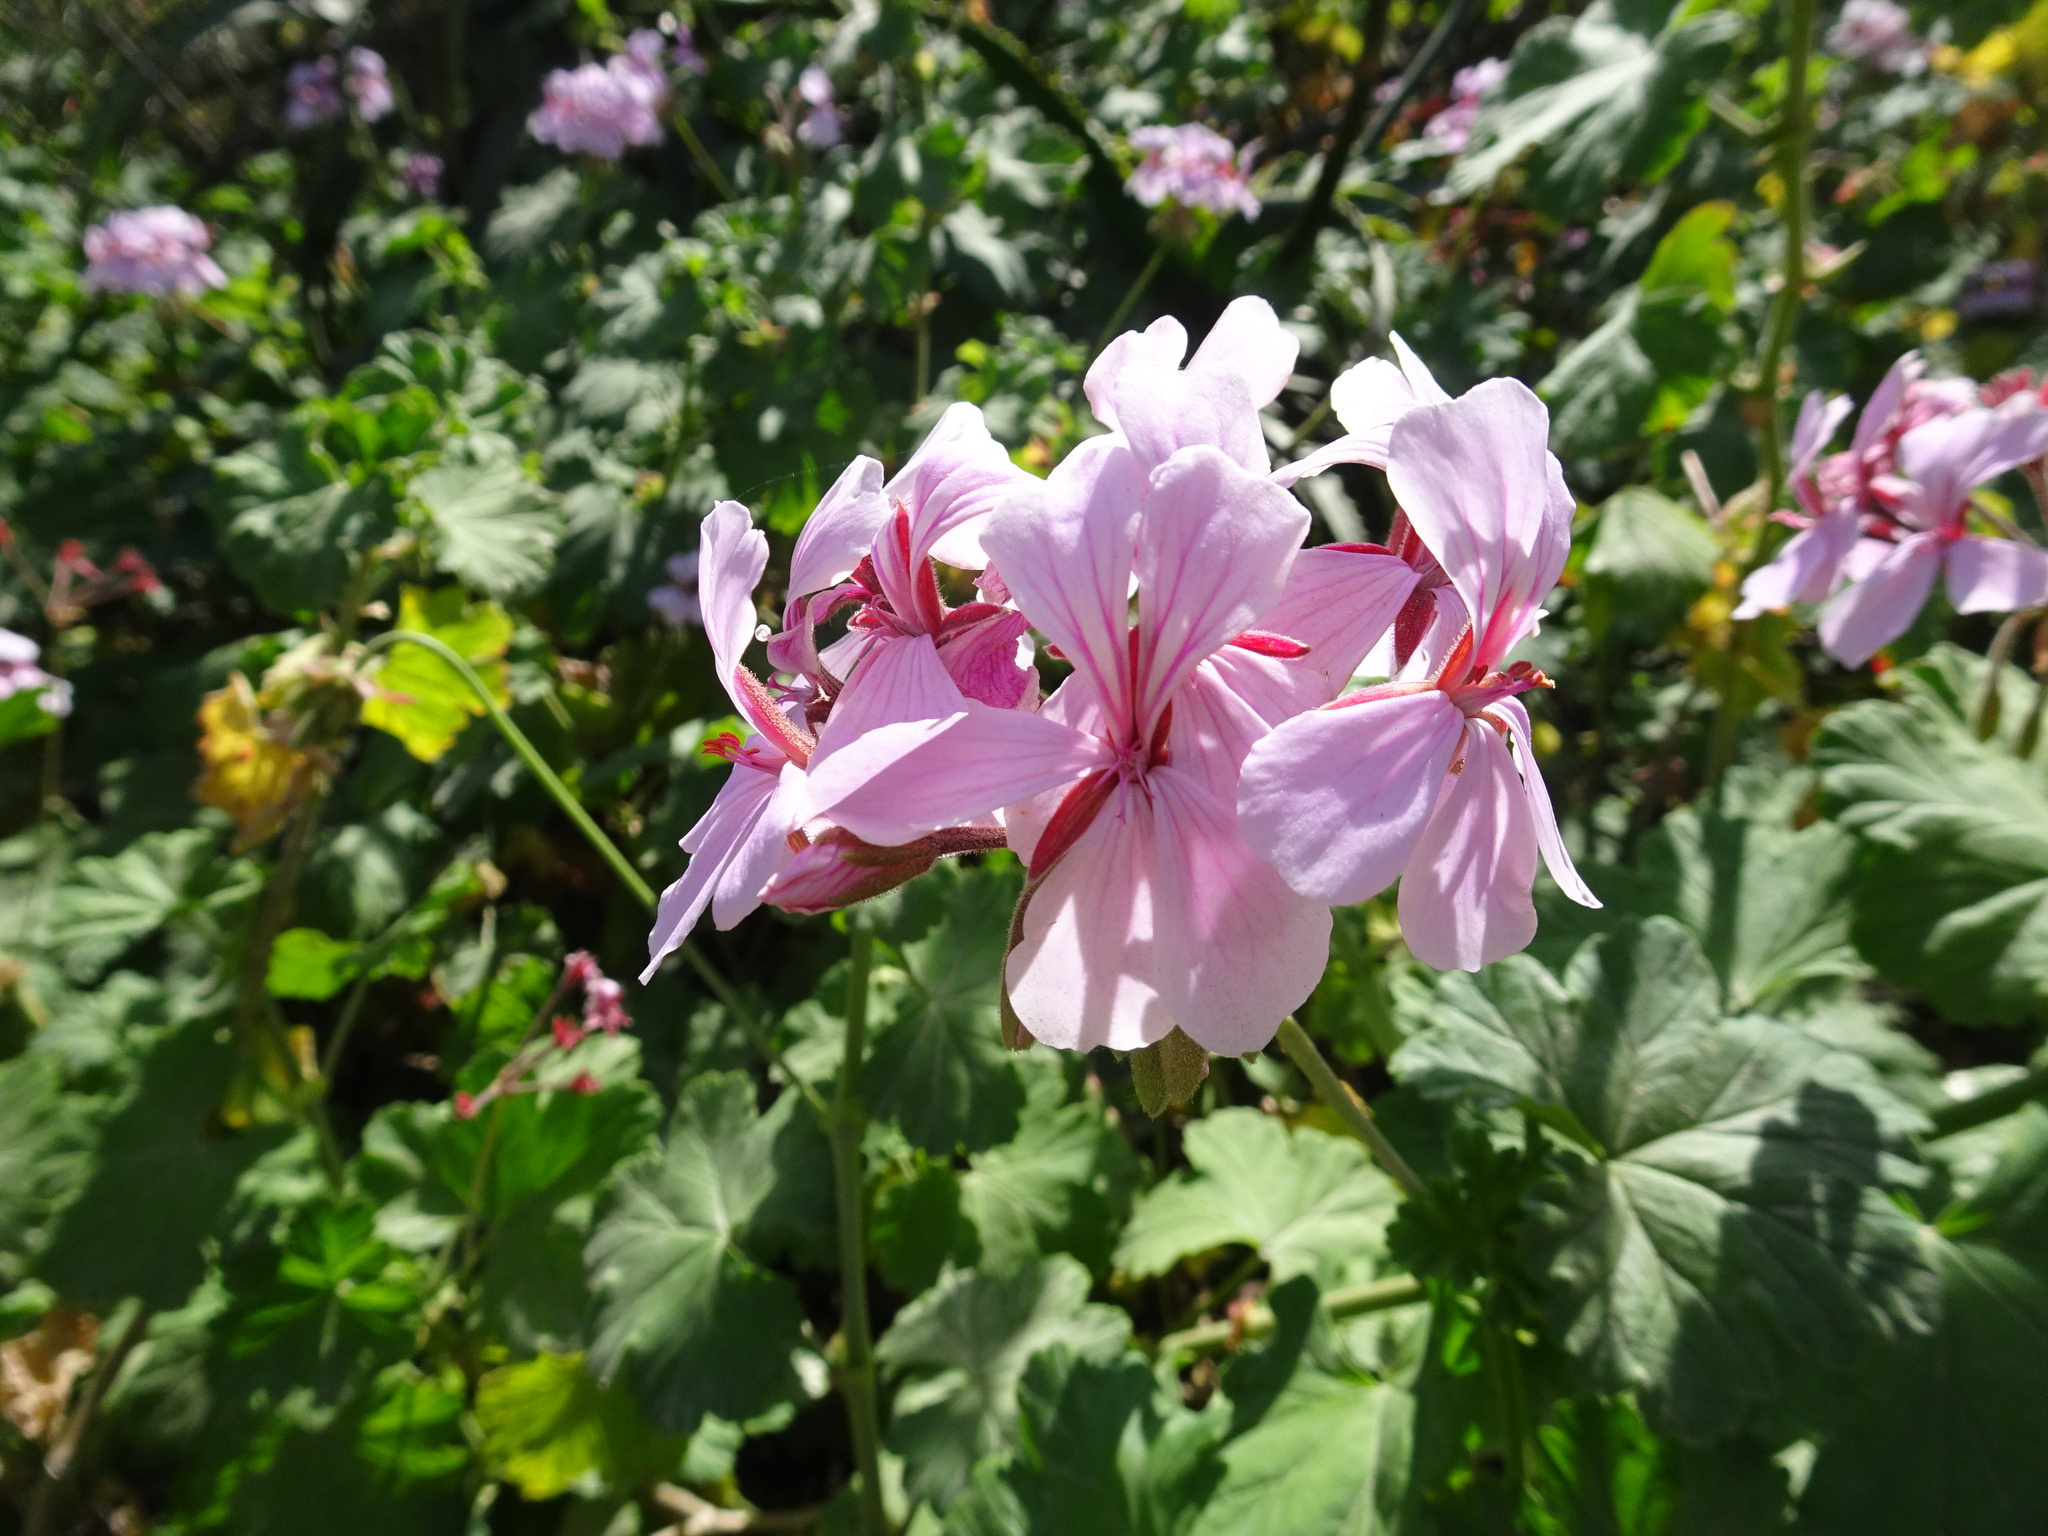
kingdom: Plantae
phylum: Tracheophyta
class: Magnoliopsida
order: Geraniales
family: Geraniaceae
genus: Pelargonium
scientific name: Pelargonium zonale
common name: Horseshoe geranium
